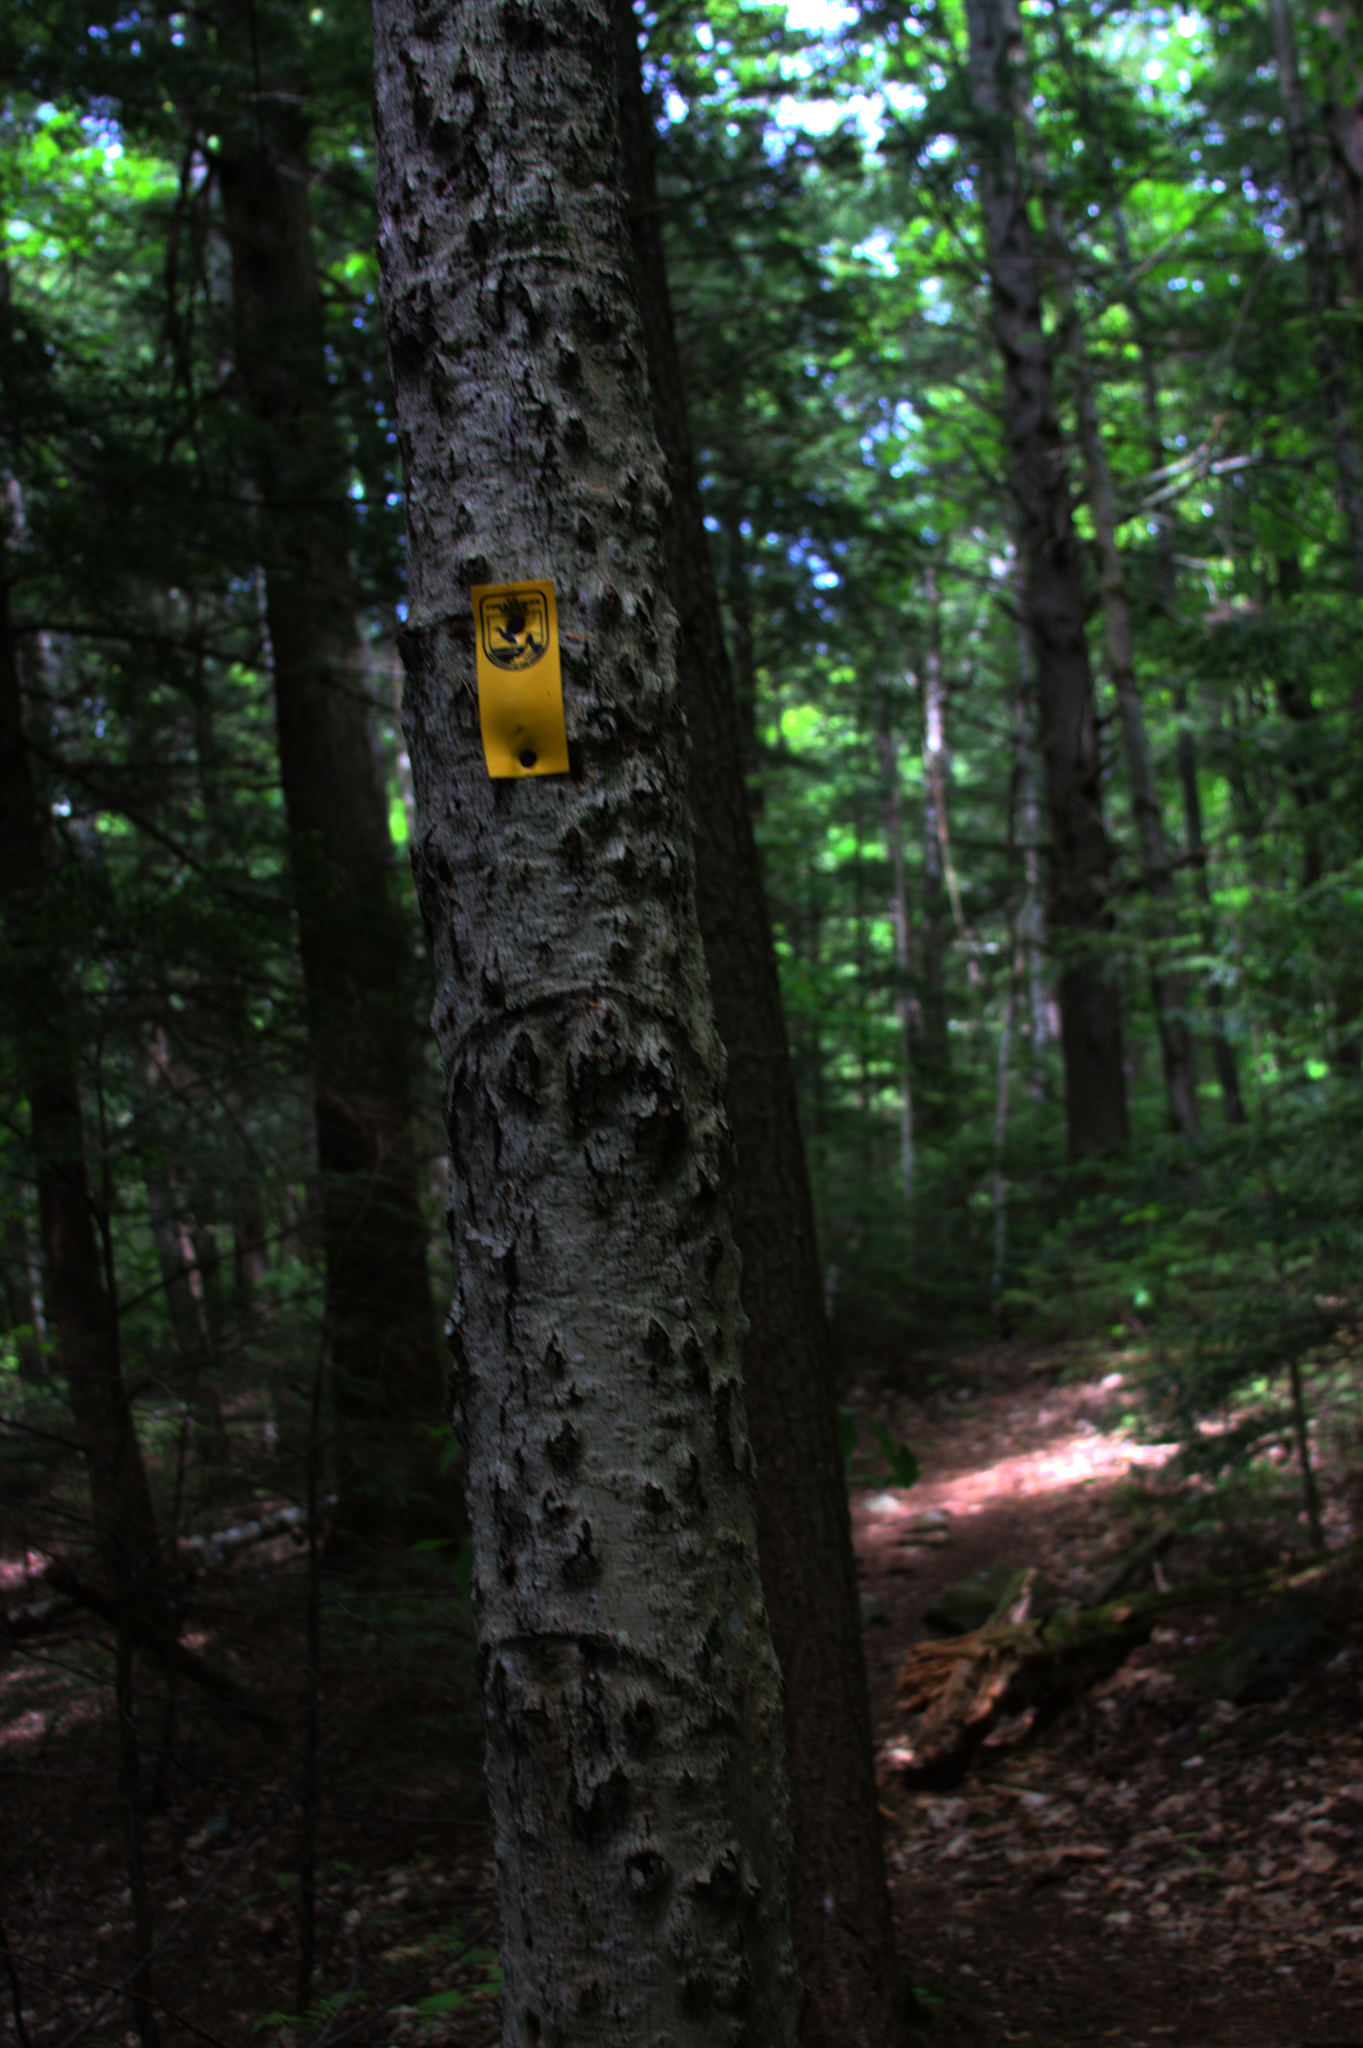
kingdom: Plantae
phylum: Tracheophyta
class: Magnoliopsida
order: Fagales
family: Fagaceae
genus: Fagus
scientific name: Fagus grandifolia
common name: American beech
